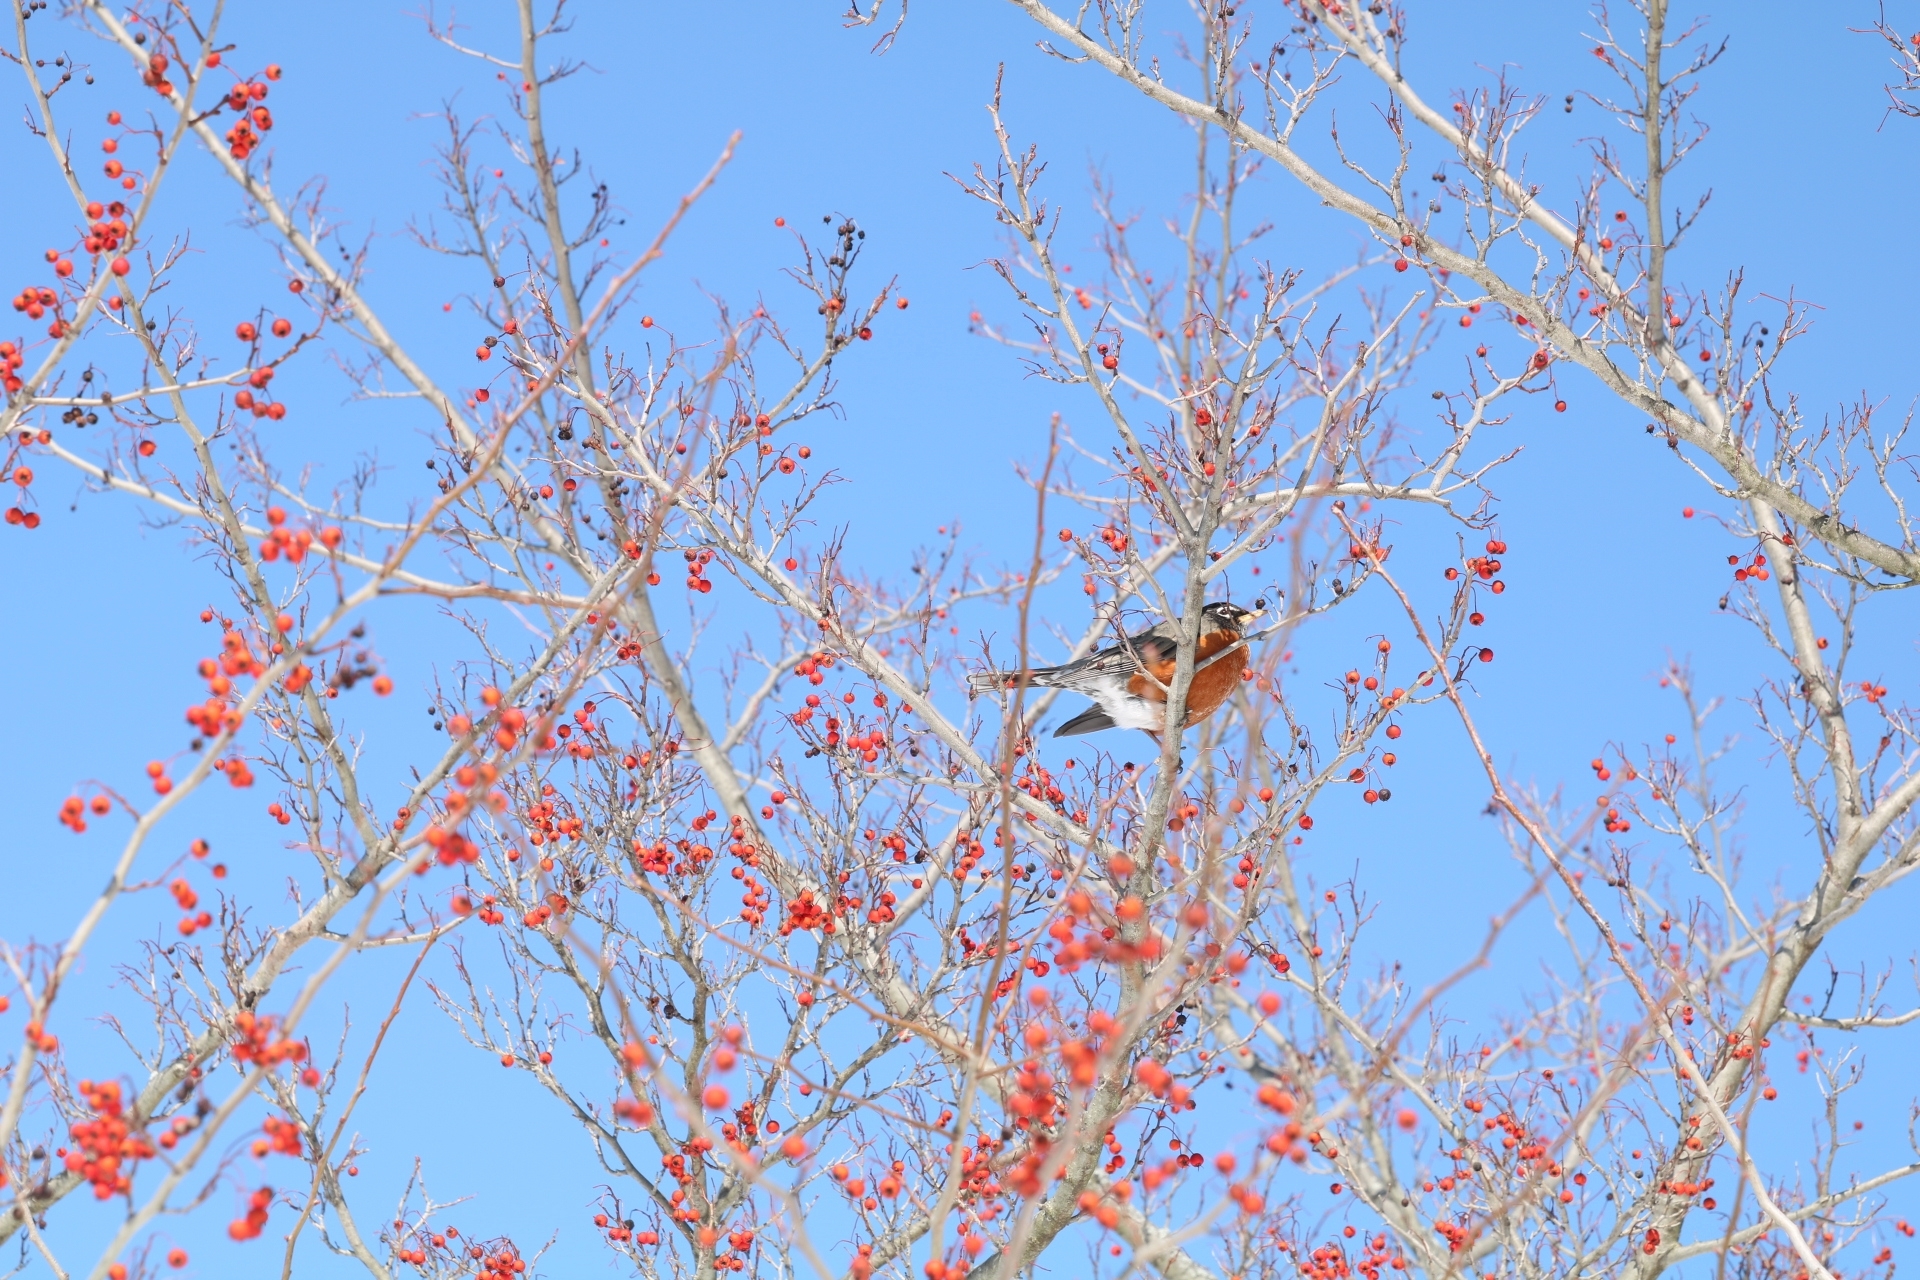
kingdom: Animalia
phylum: Chordata
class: Aves
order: Passeriformes
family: Turdidae
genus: Turdus
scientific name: Turdus migratorius
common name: American robin
